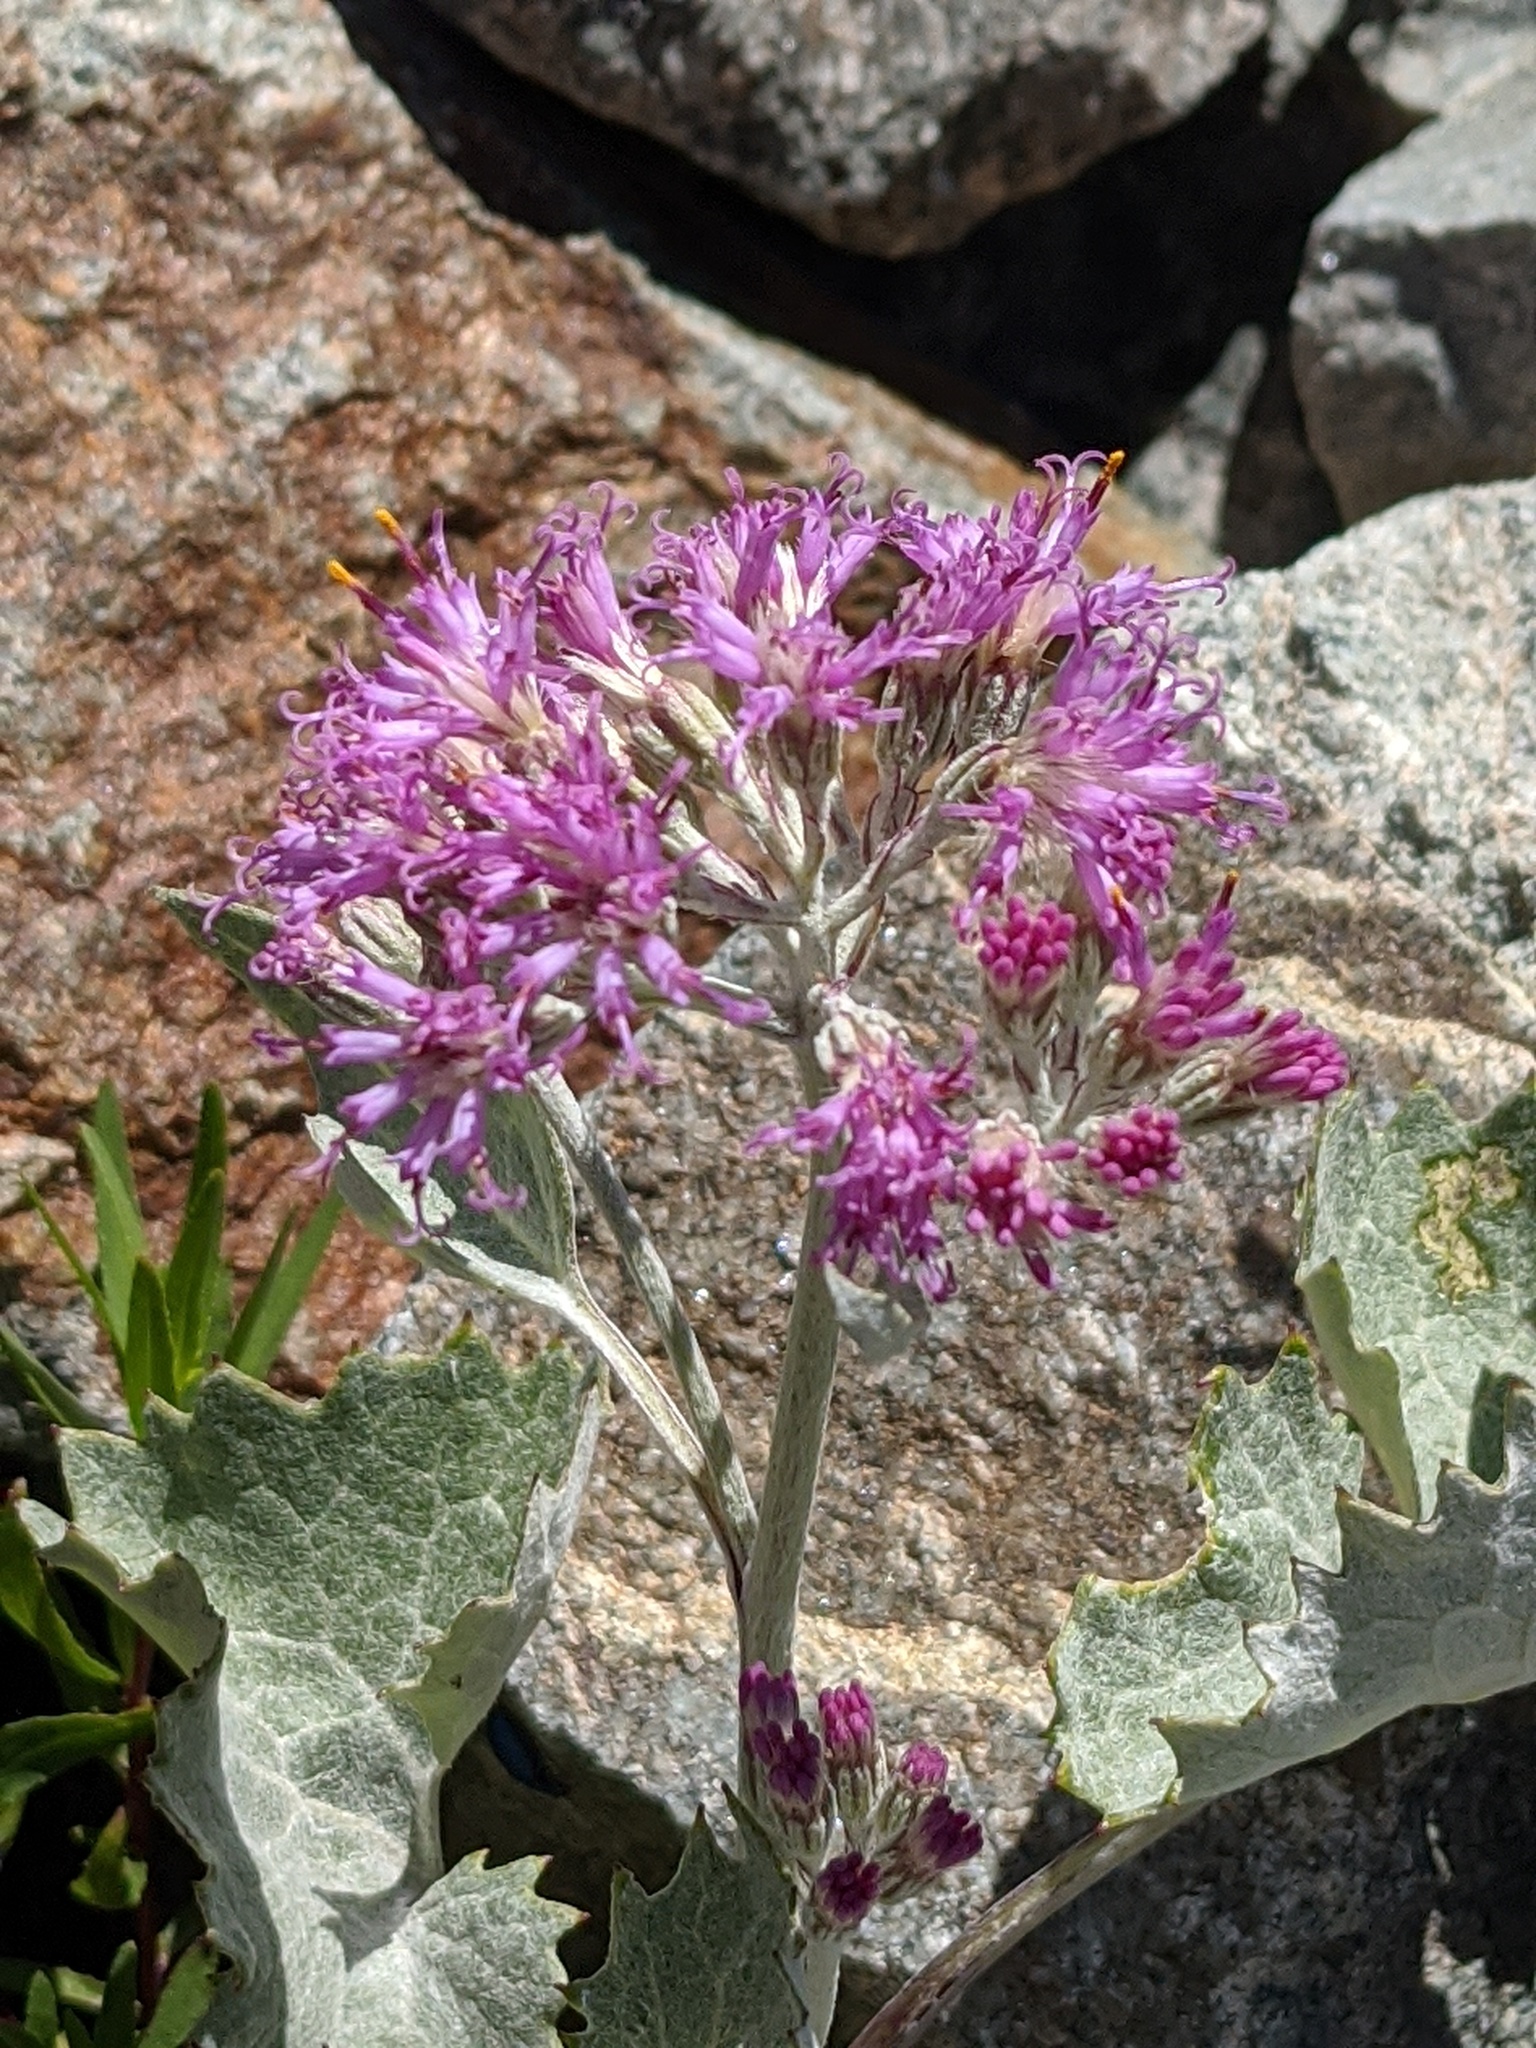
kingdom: Plantae
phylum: Tracheophyta
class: Magnoliopsida
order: Asterales
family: Asteraceae
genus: Adenostyles
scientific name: Adenostyles leucophylla
